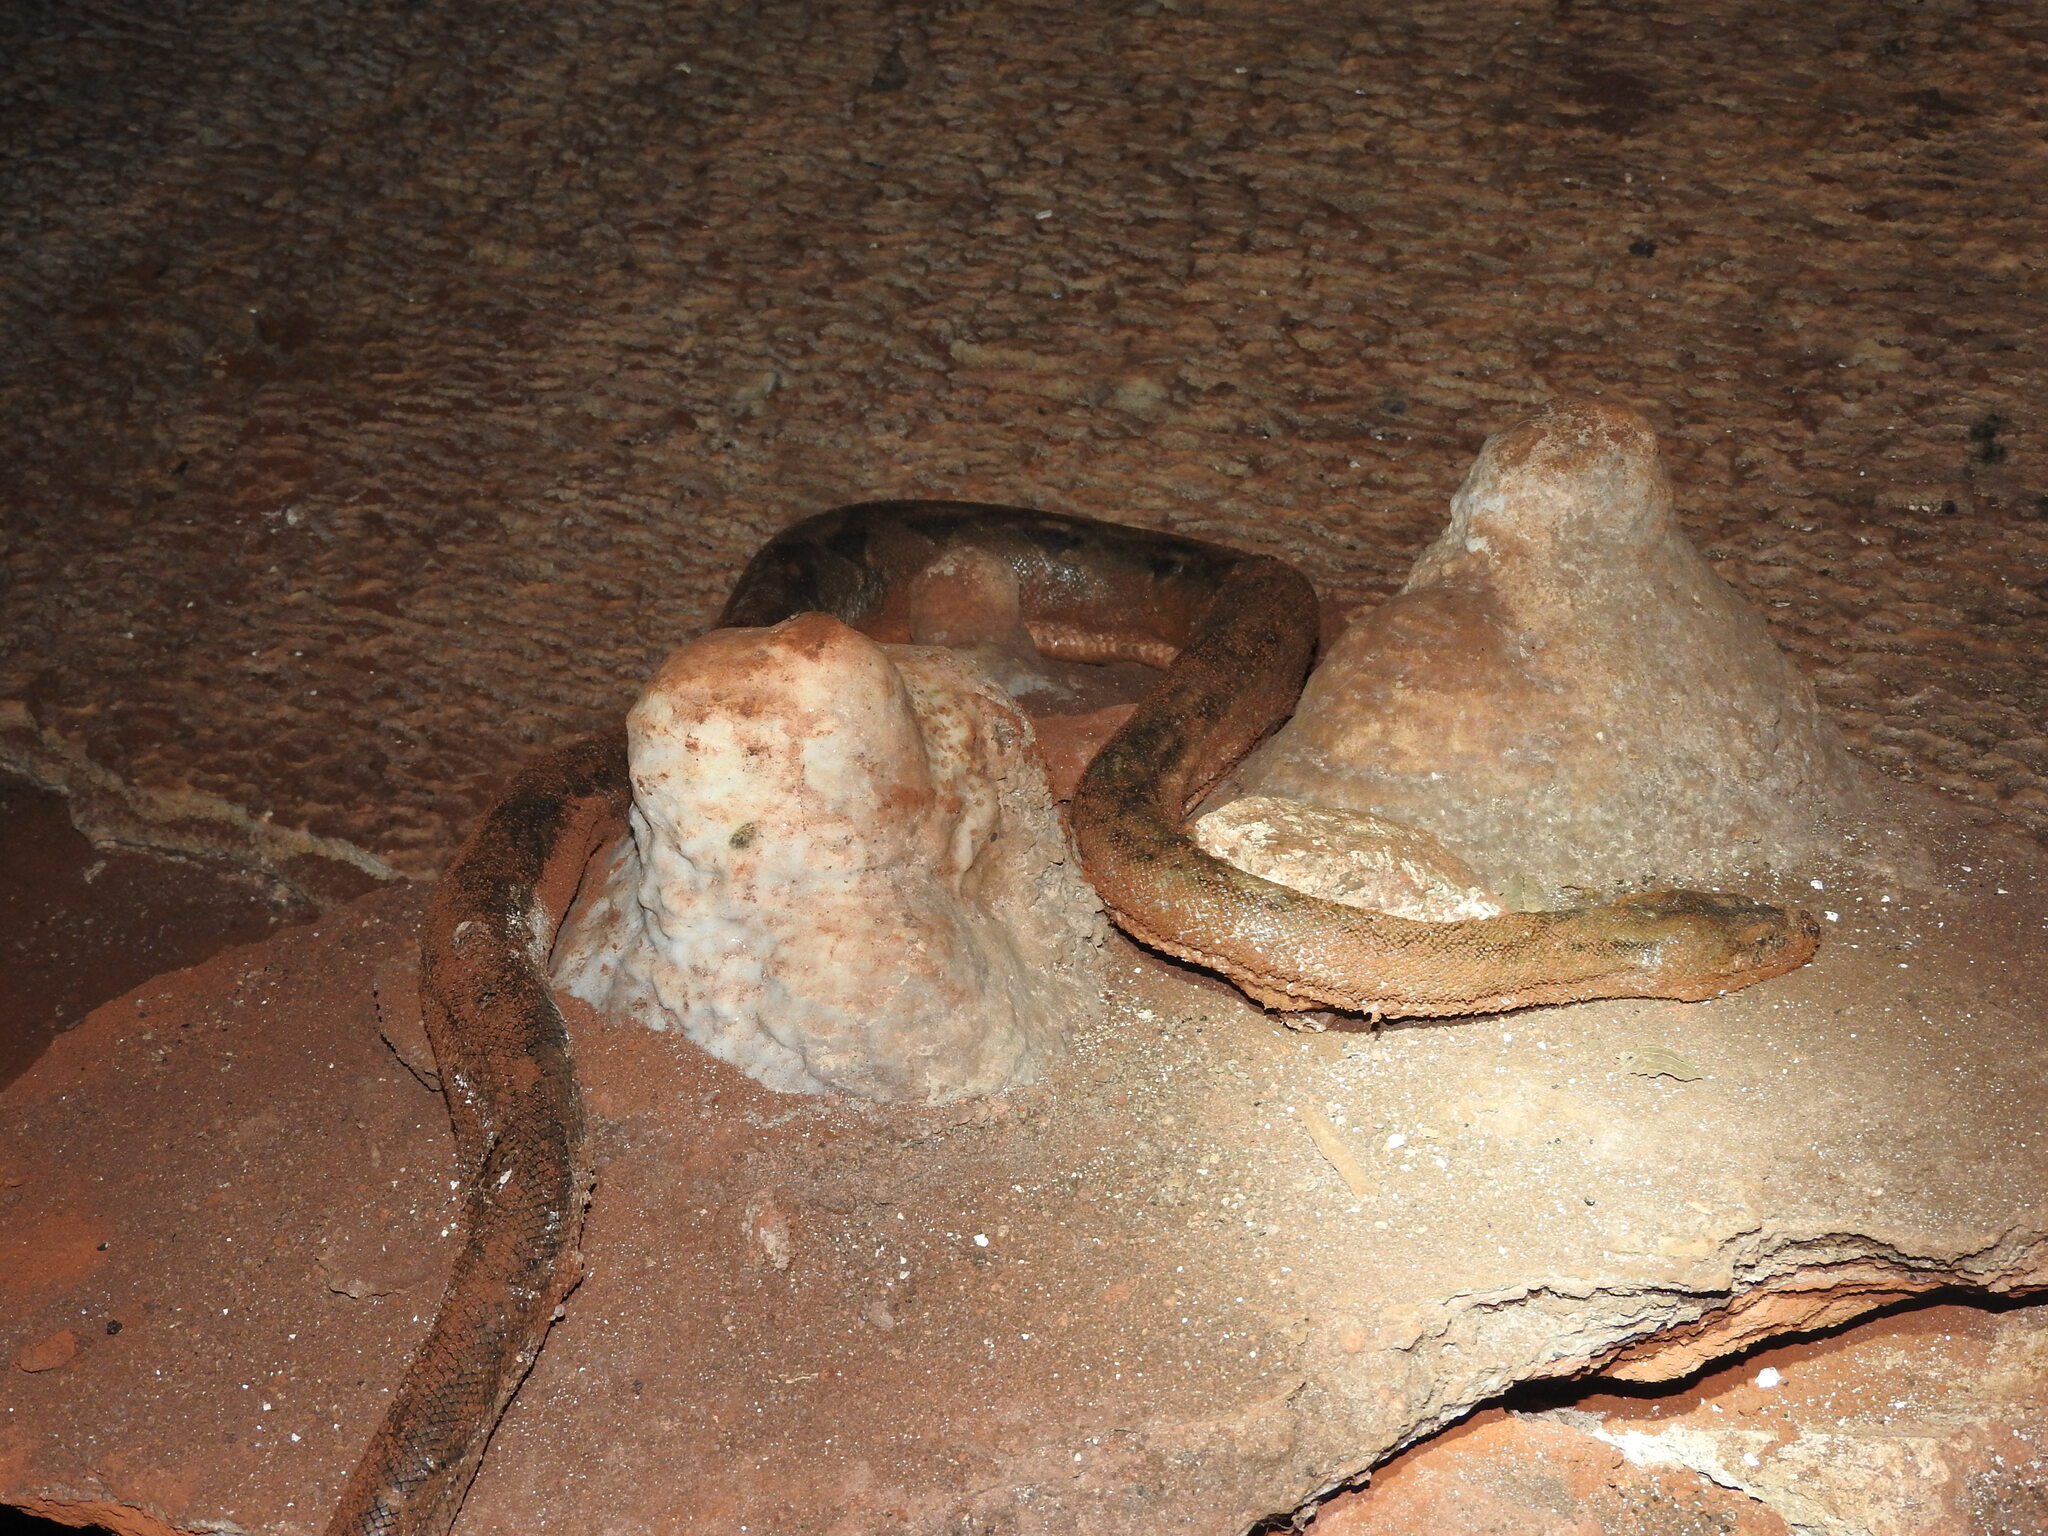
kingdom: Animalia
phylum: Chordata
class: Squamata
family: Boidae
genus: Boa
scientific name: Boa imperator
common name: Central american boa
